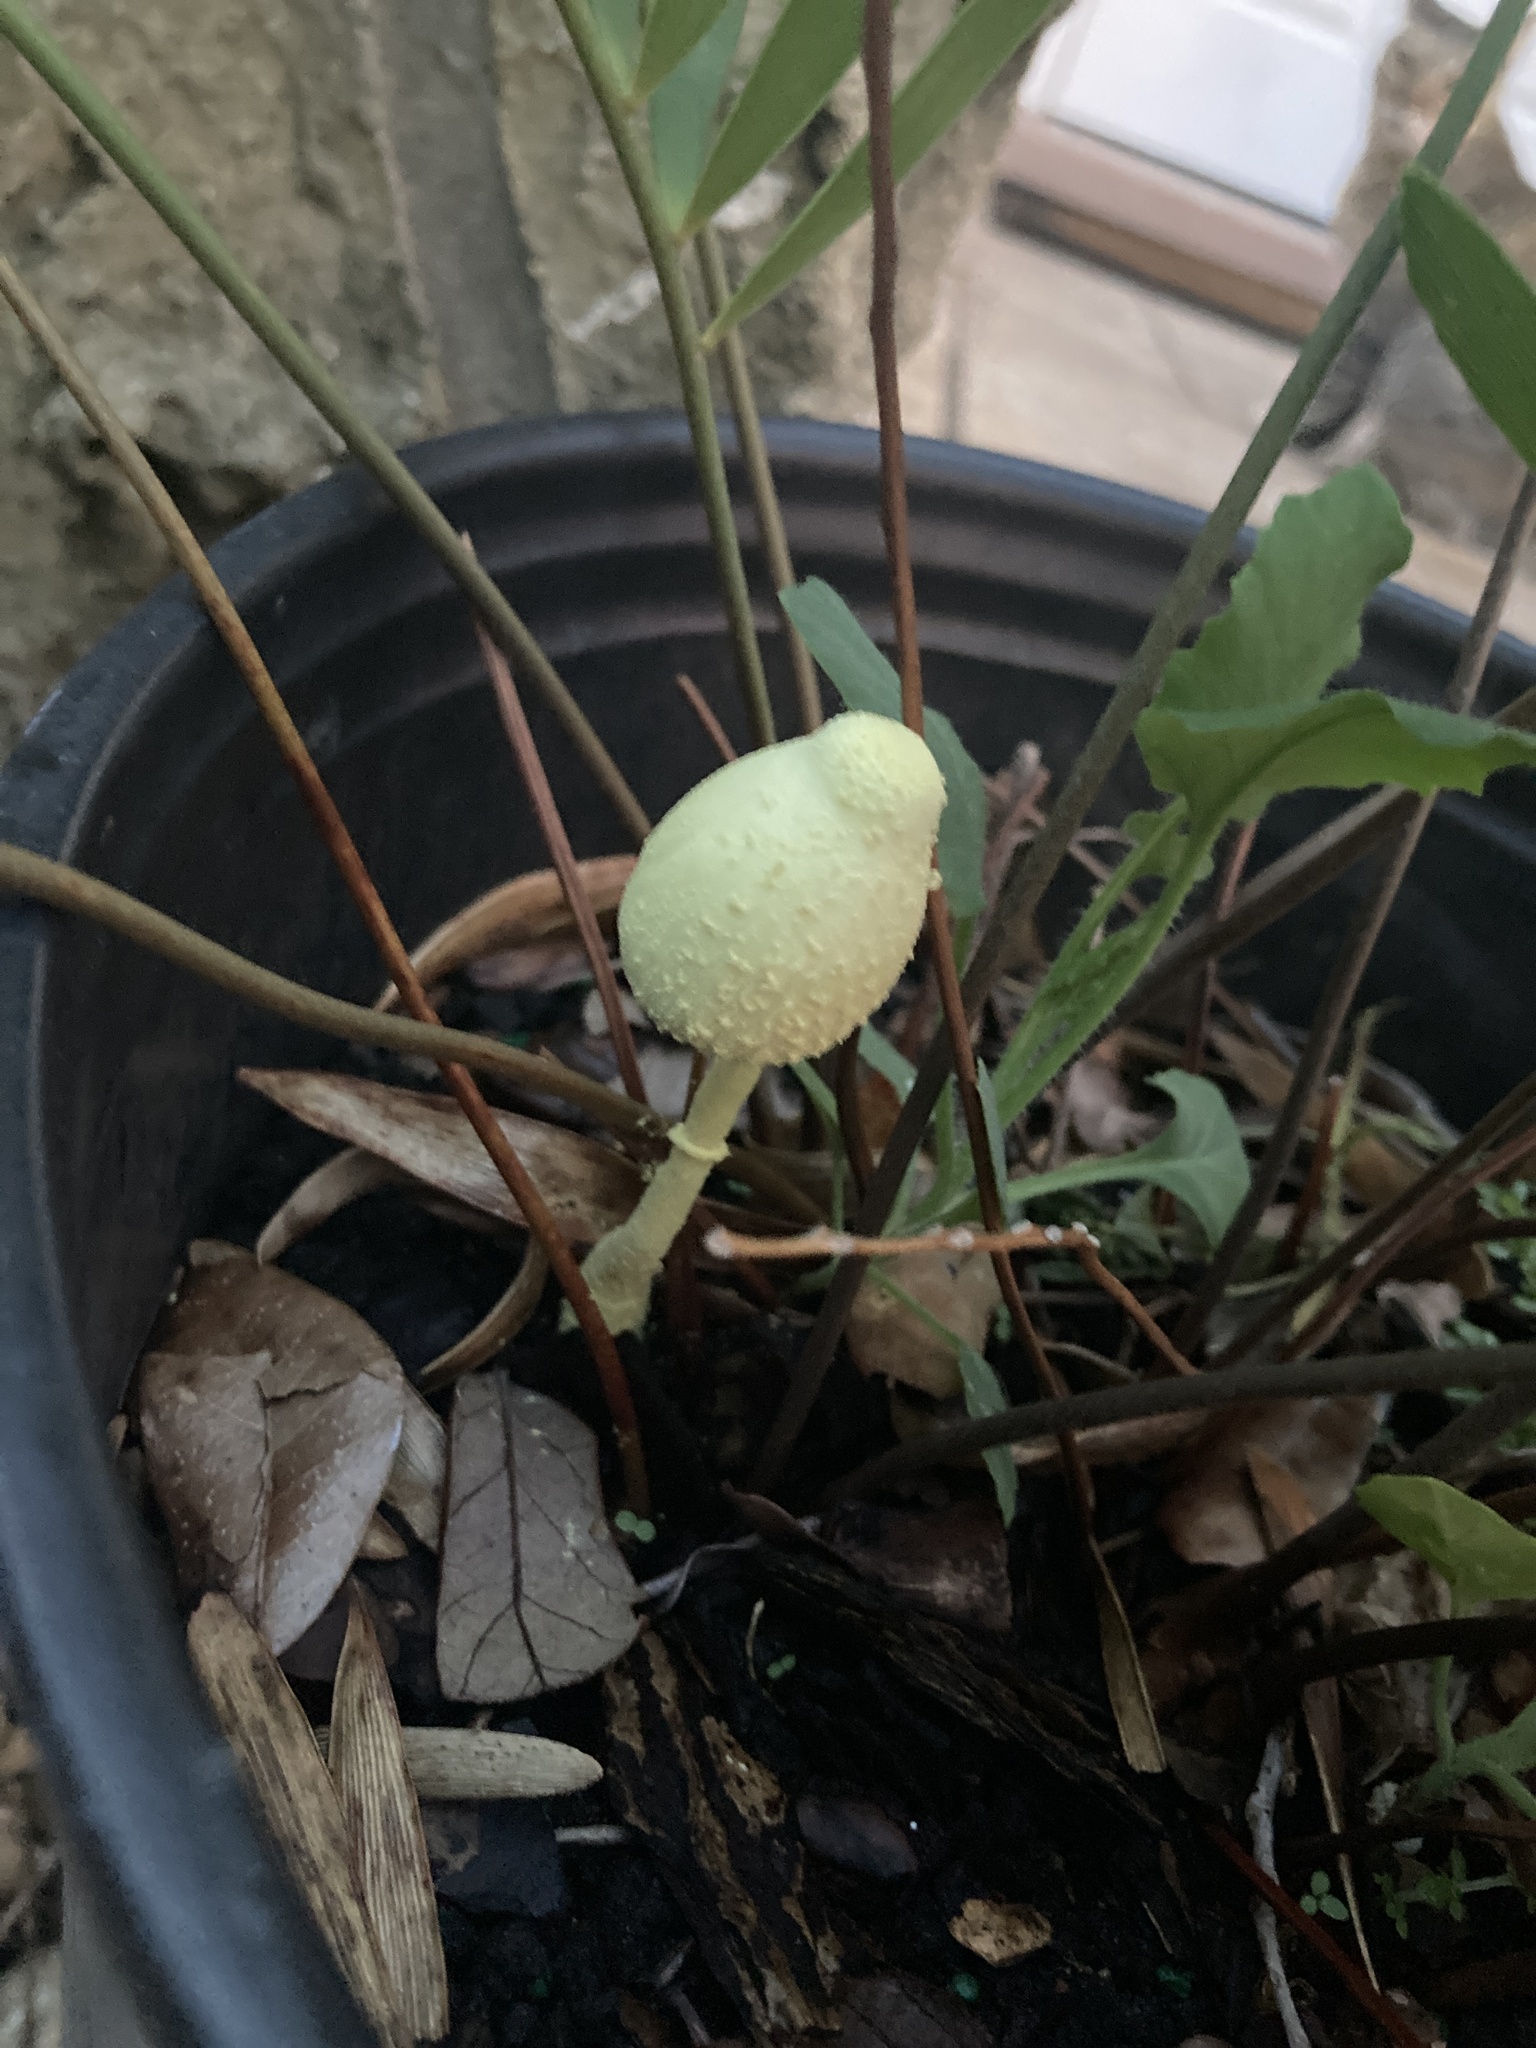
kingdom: Fungi
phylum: Basidiomycota
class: Agaricomycetes
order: Agaricales
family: Agaricaceae
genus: Leucocoprinus
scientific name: Leucocoprinus birnbaumii
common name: Plantpot dapperling
